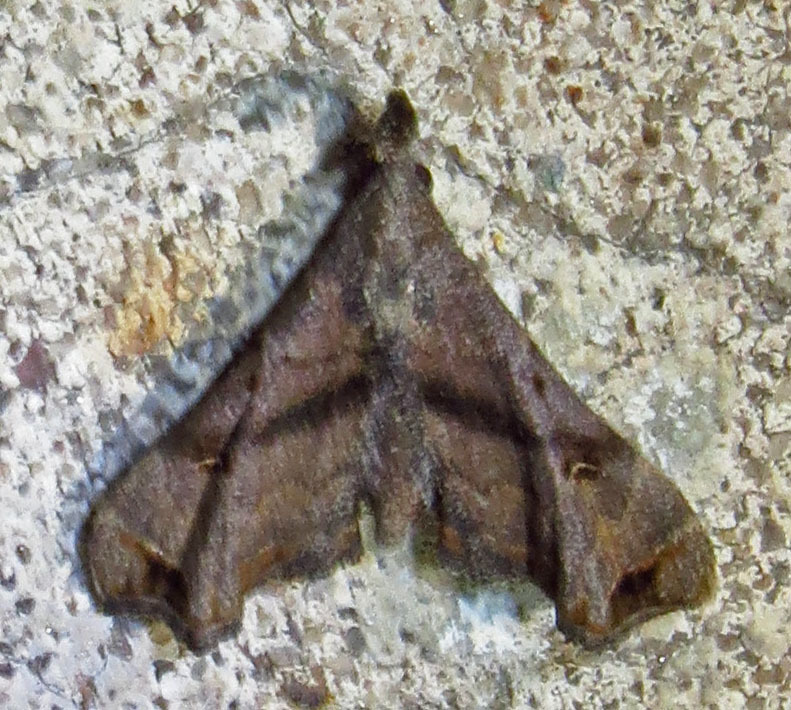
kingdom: Animalia
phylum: Arthropoda
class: Insecta
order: Lepidoptera
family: Erebidae
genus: Palthis
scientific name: Palthis asopialis
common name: Faint-spotted palthis moth
